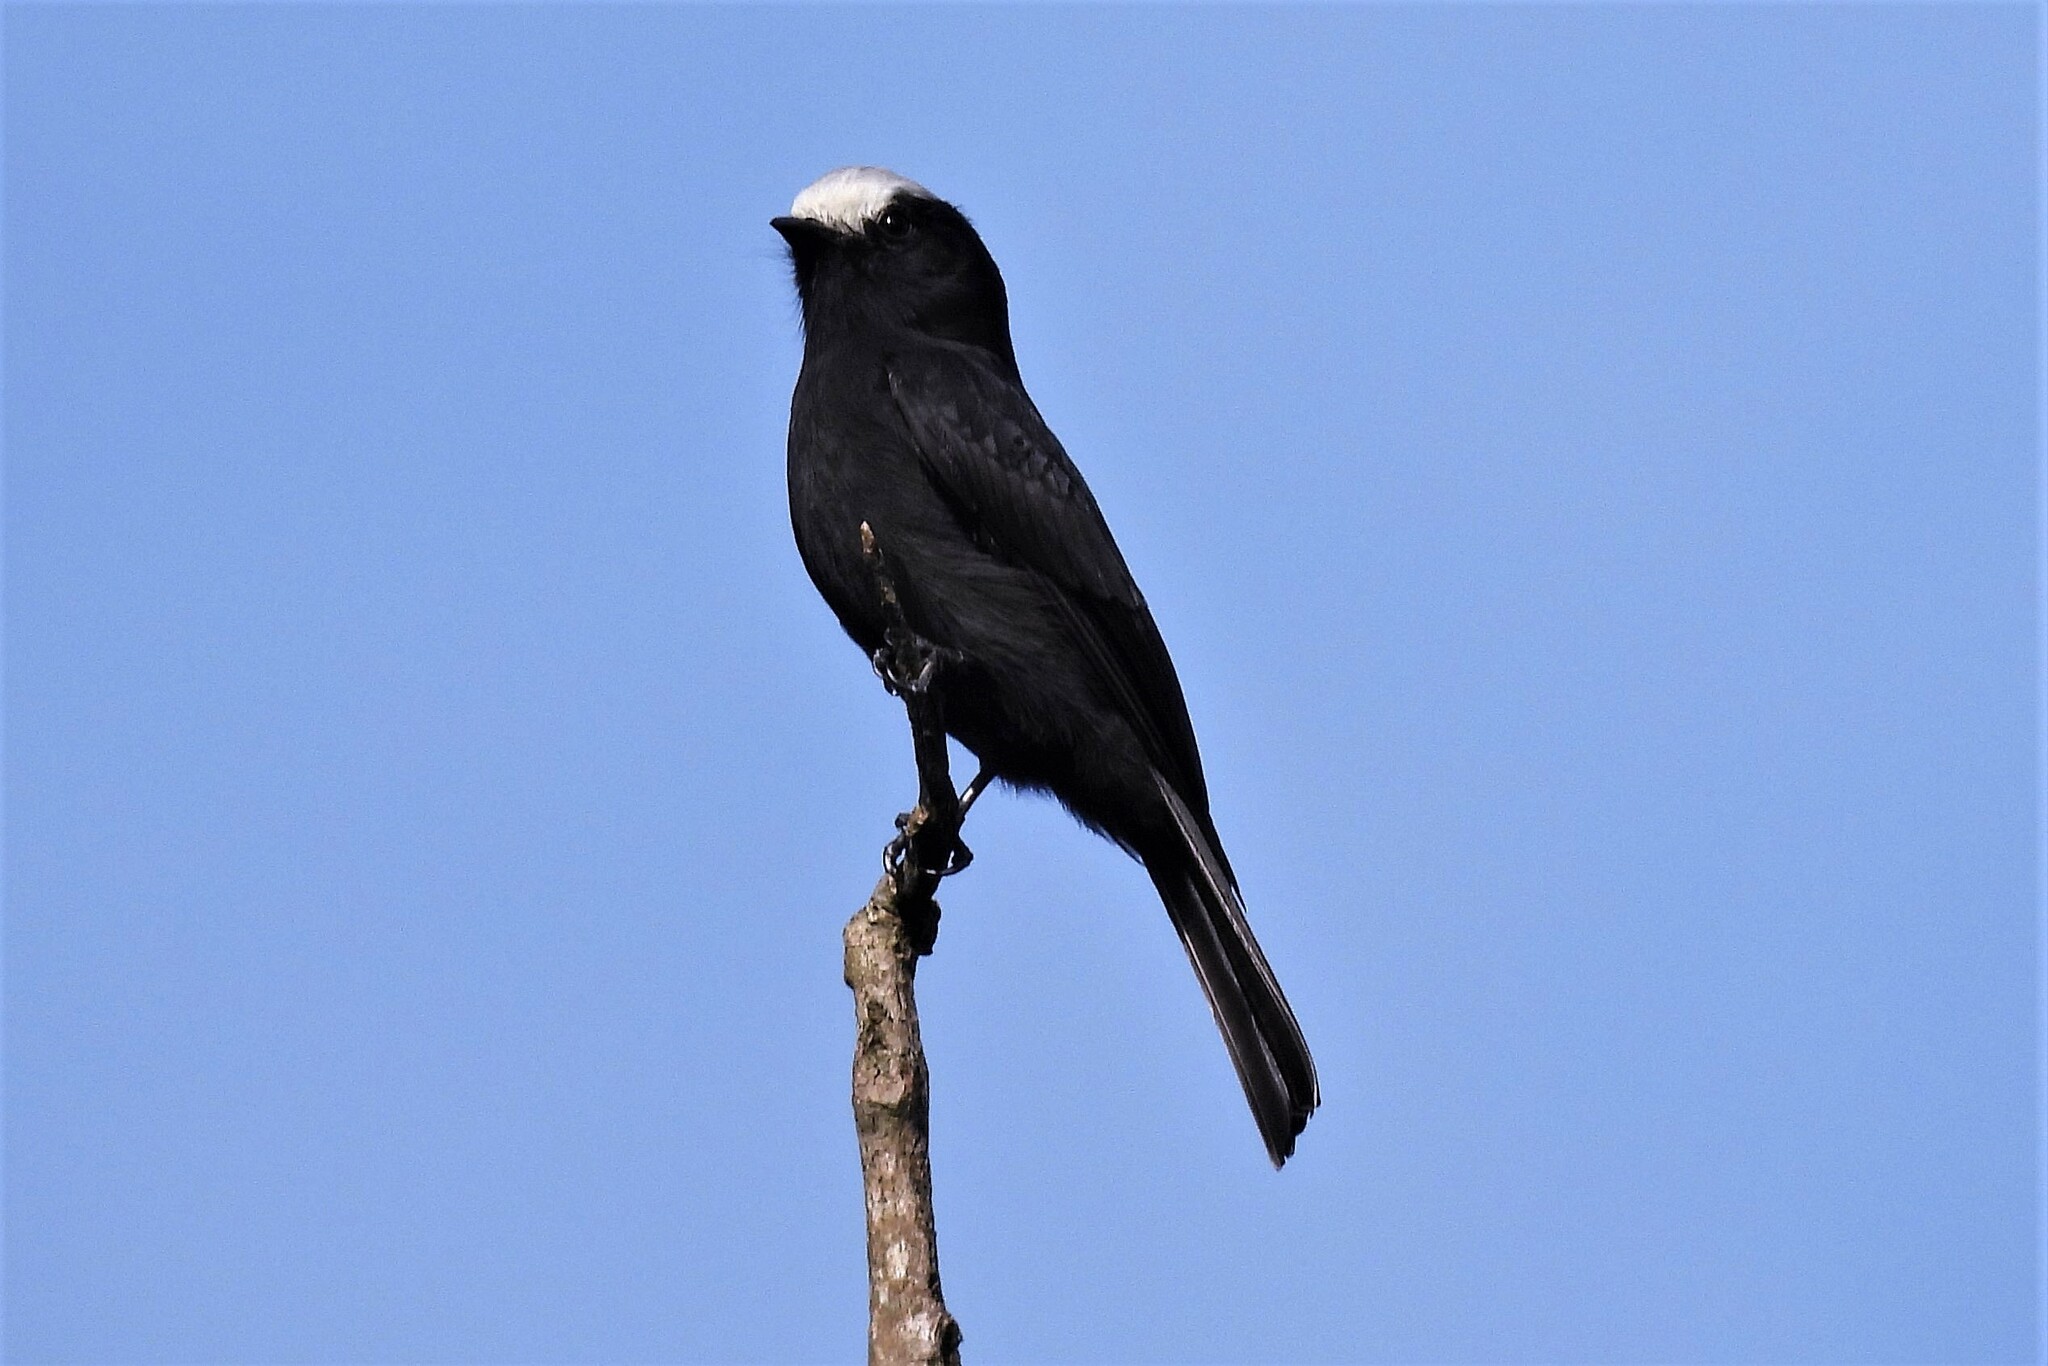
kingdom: Animalia
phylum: Chordata
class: Aves
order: Passeriformes
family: Tyrannidae
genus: Colonia
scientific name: Colonia colonus
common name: Long-tailed tyrant
